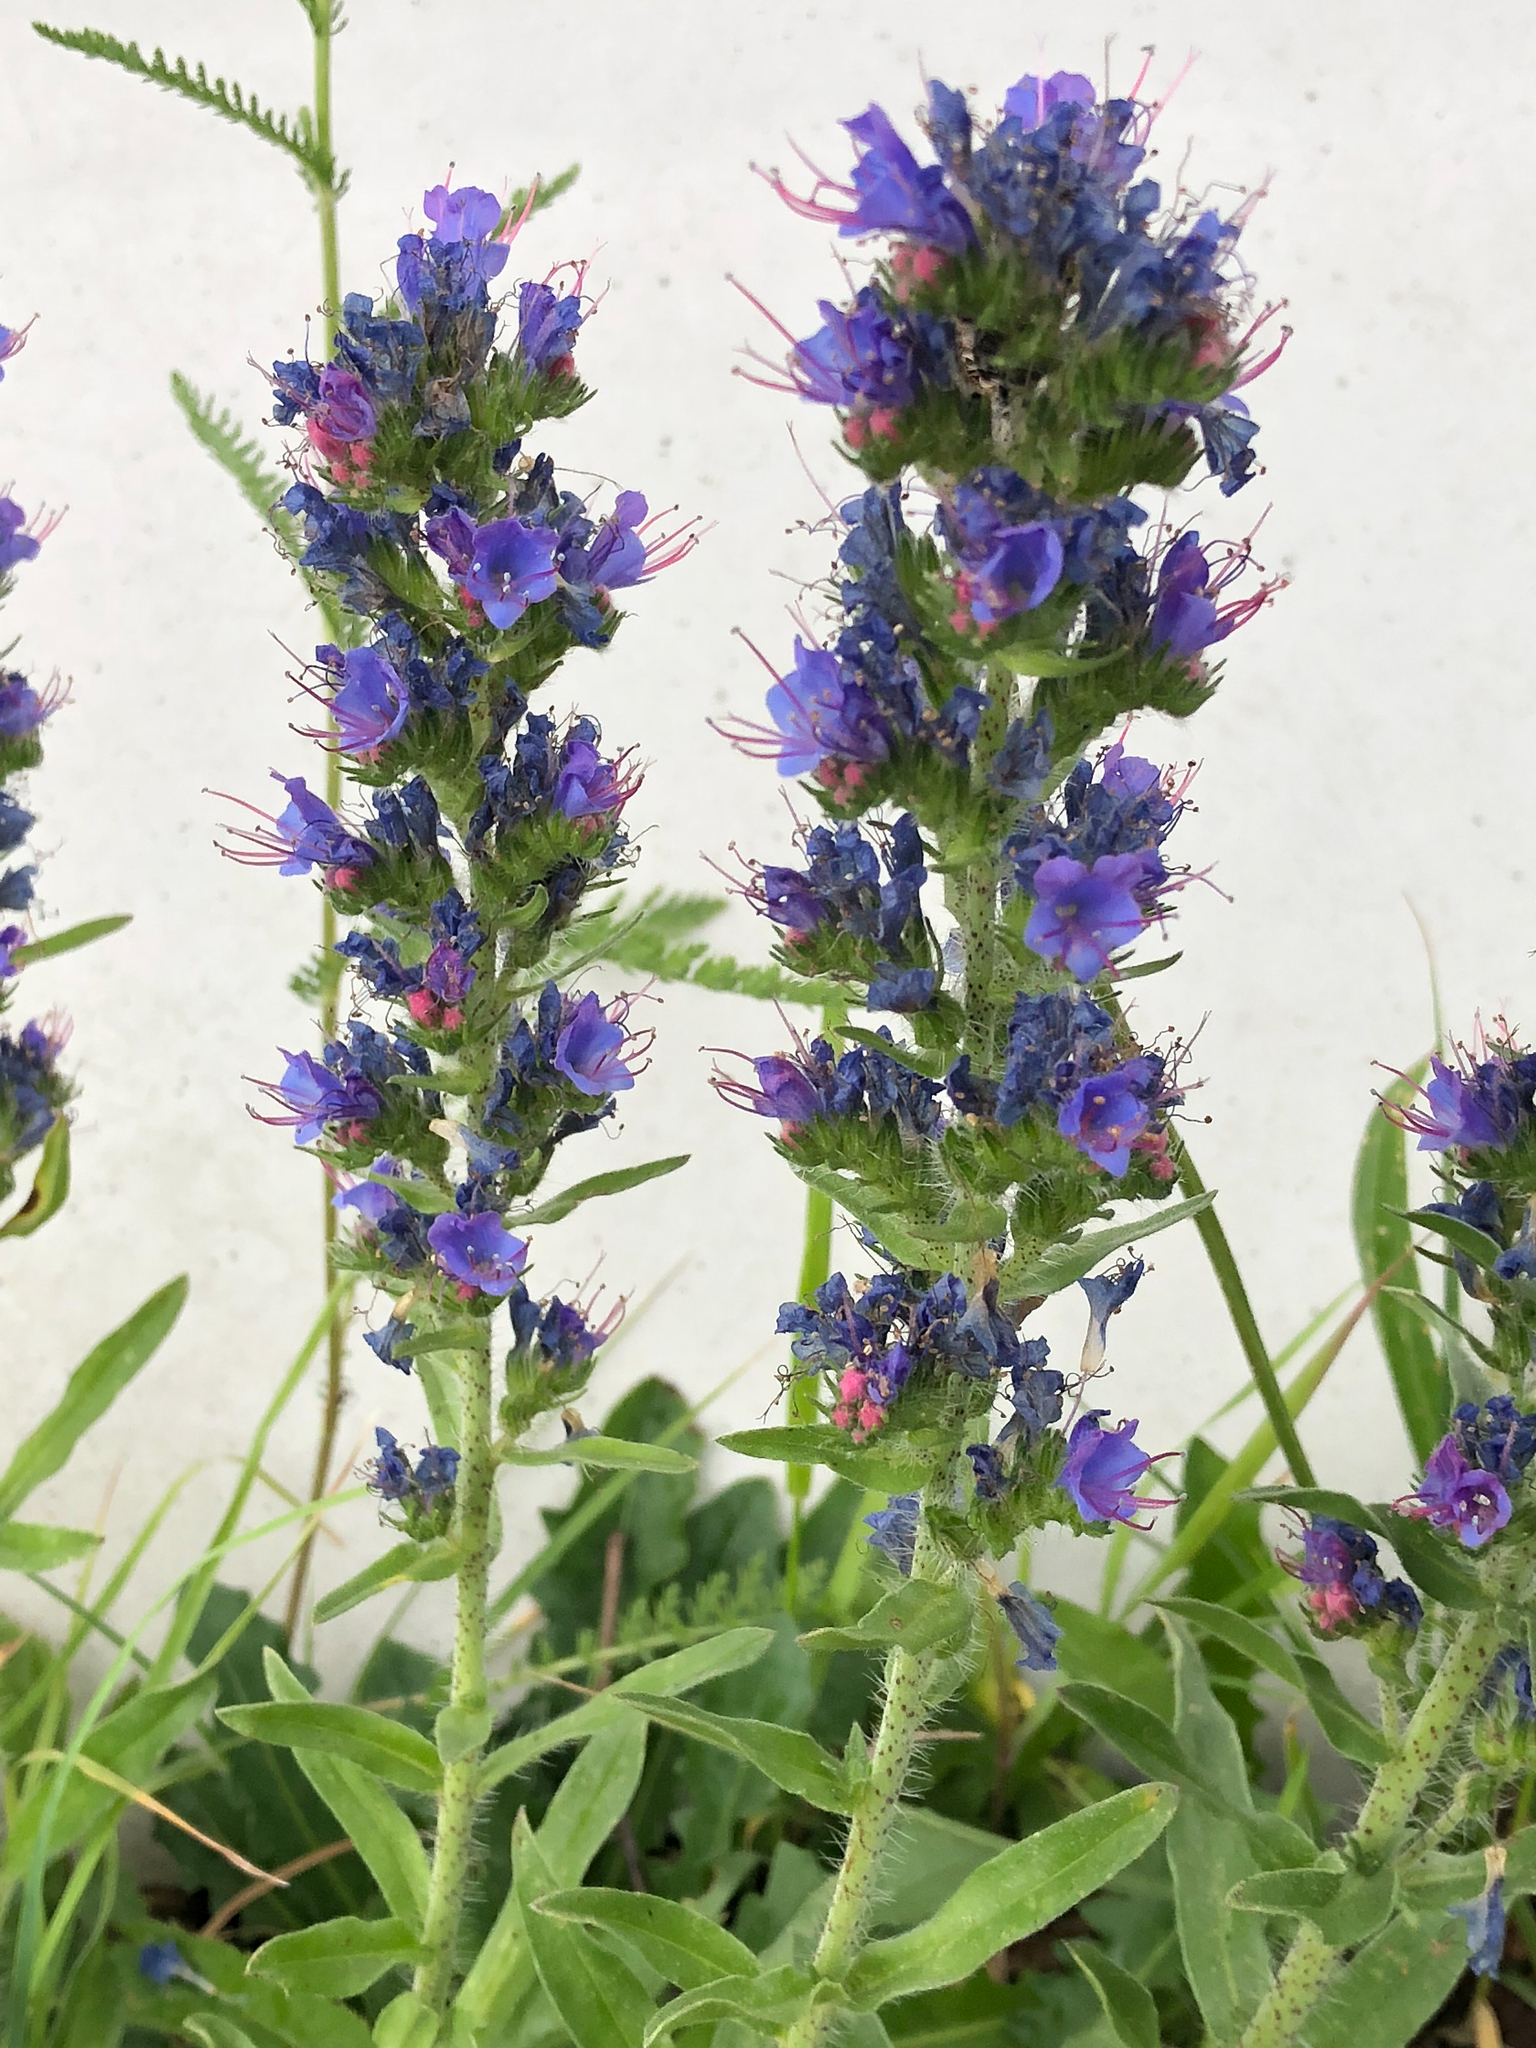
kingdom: Plantae
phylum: Tracheophyta
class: Magnoliopsida
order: Boraginales
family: Boraginaceae
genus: Echium
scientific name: Echium vulgare
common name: Common viper's bugloss
